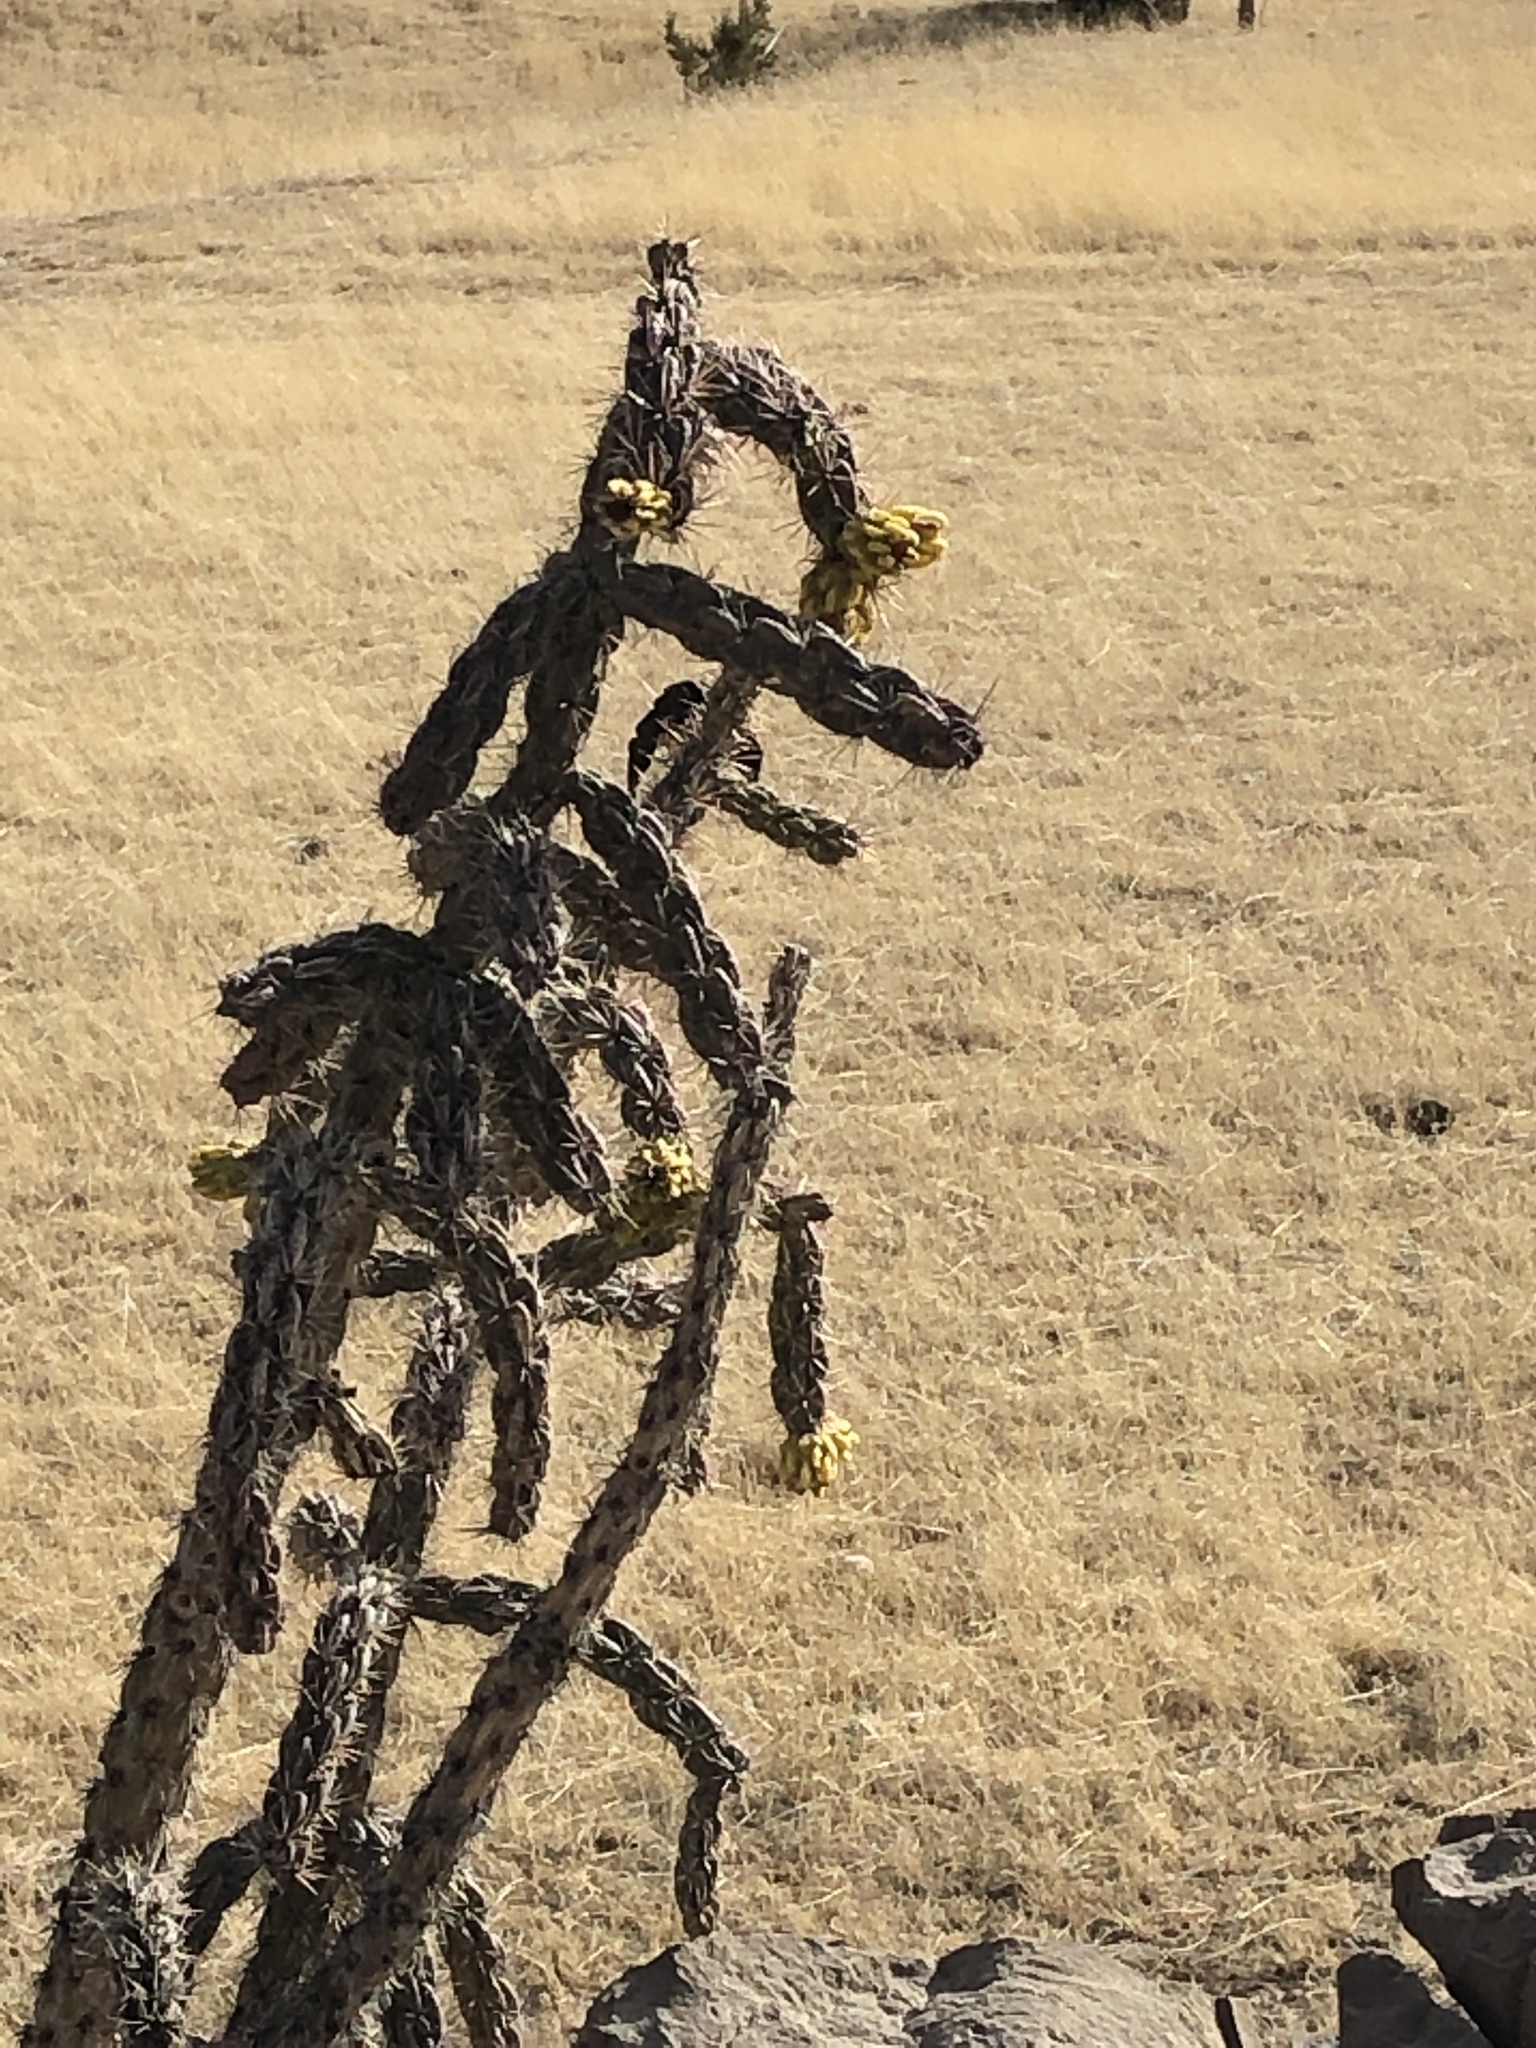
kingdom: Plantae
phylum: Tracheophyta
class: Magnoliopsida
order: Caryophyllales
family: Cactaceae
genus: Cylindropuntia
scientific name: Cylindropuntia imbricata
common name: Candelabrum cactus
